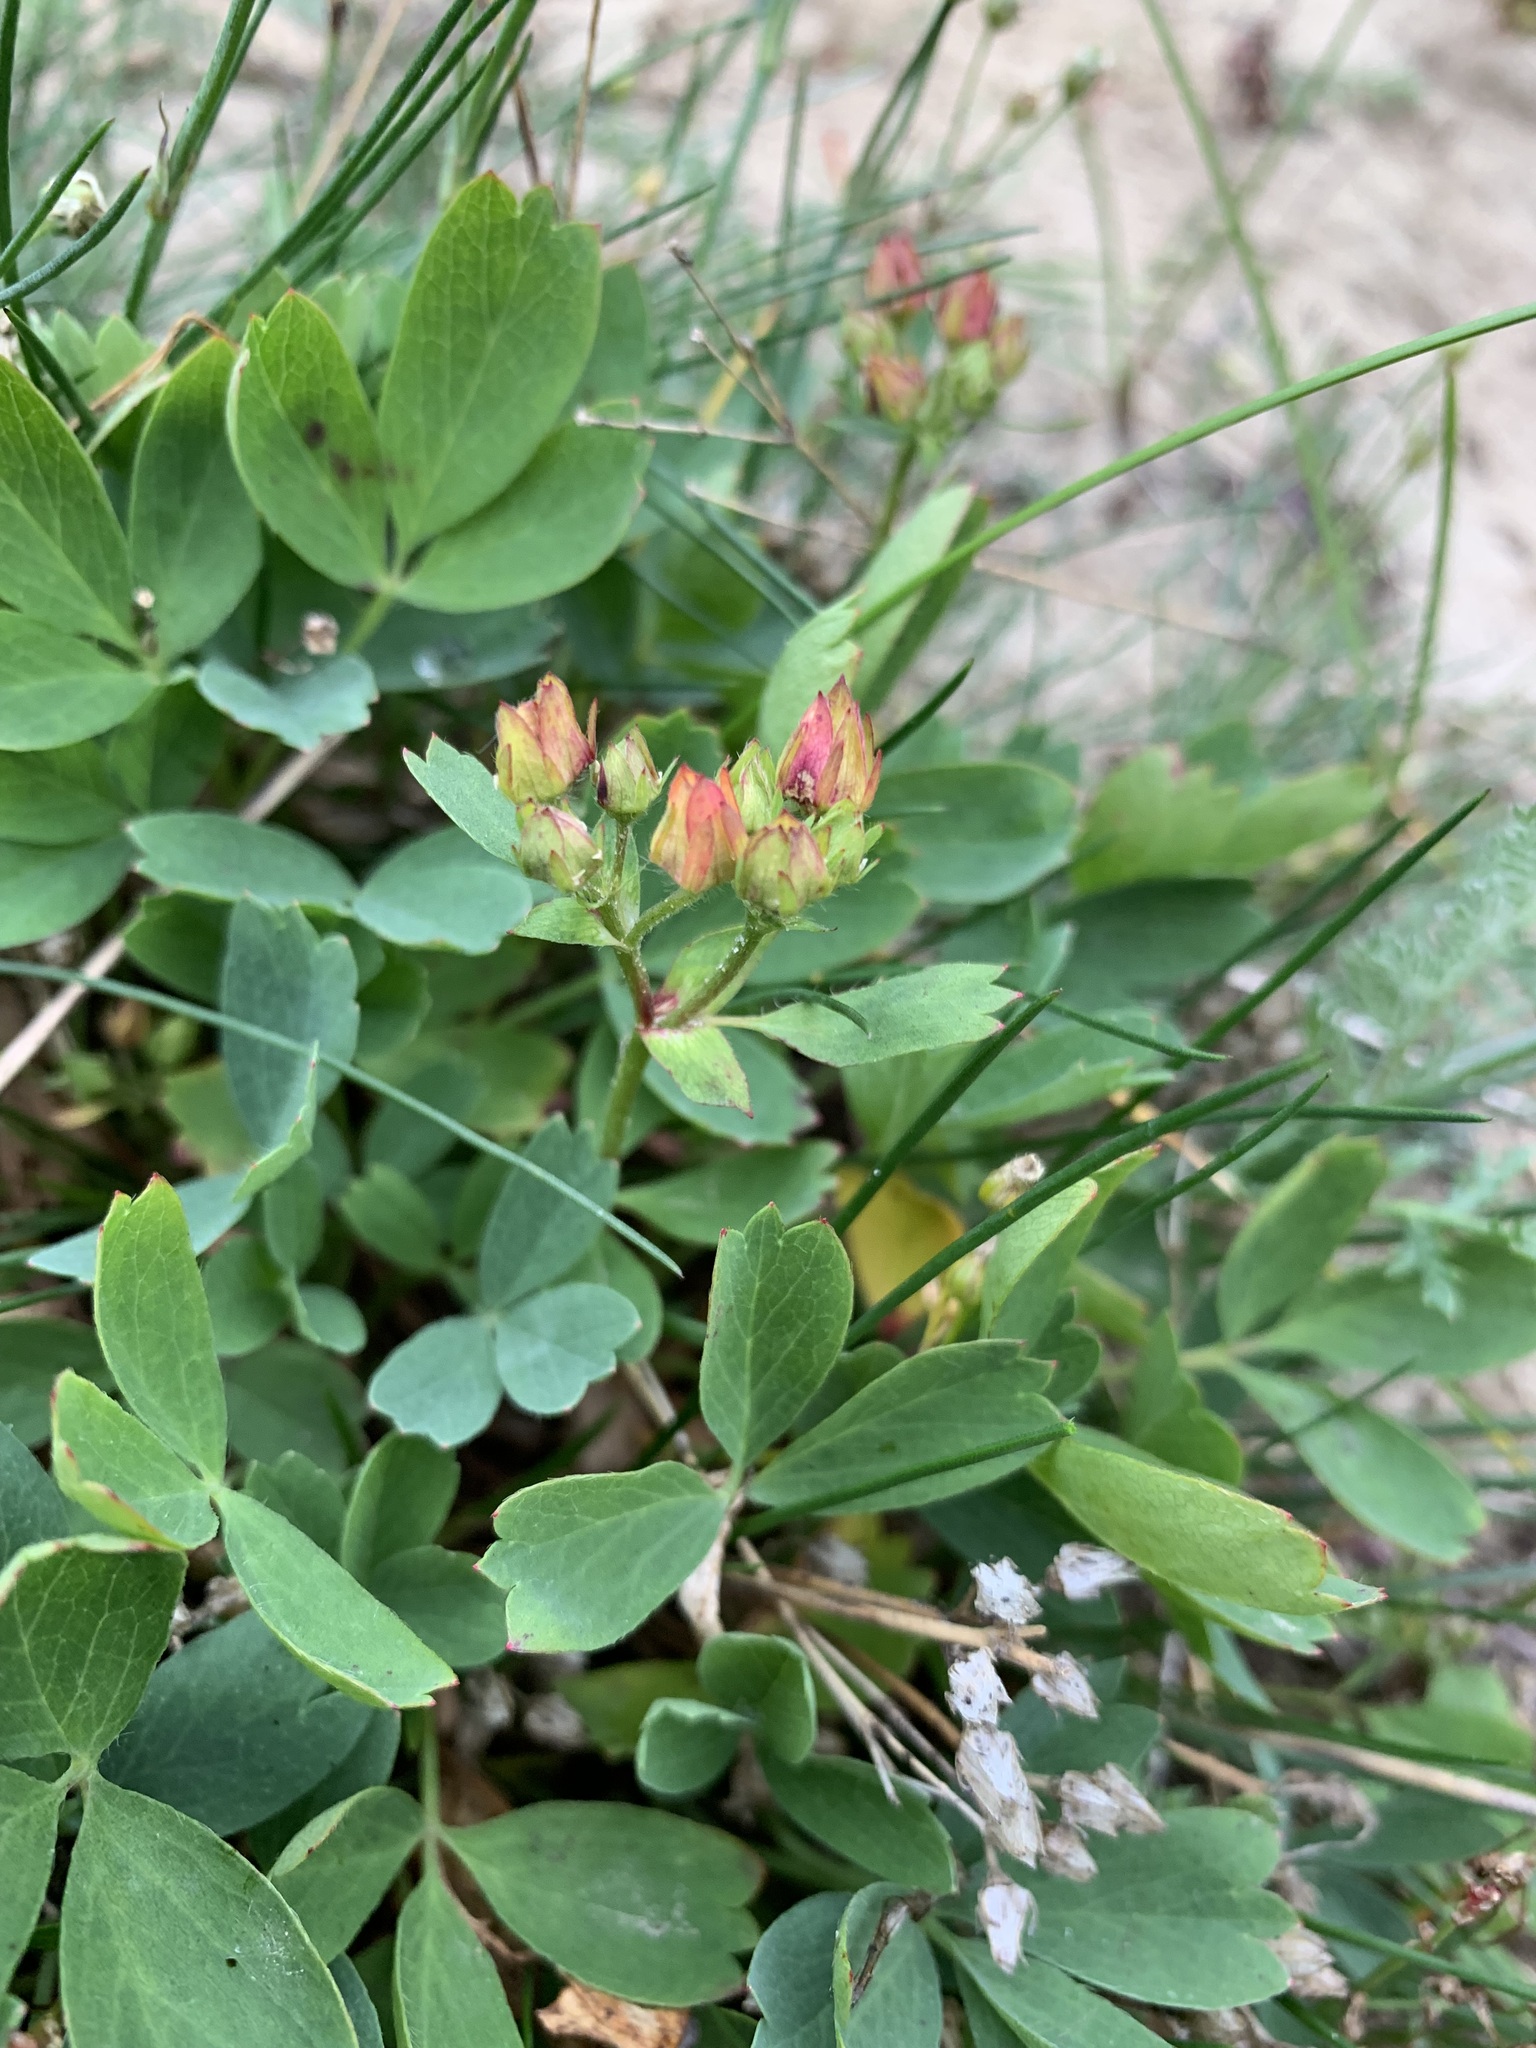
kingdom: Plantae
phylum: Tracheophyta
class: Magnoliopsida
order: Rosales
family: Rosaceae
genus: Sibbaldia
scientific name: Sibbaldia procumbens
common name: Creeping sibbaldia
